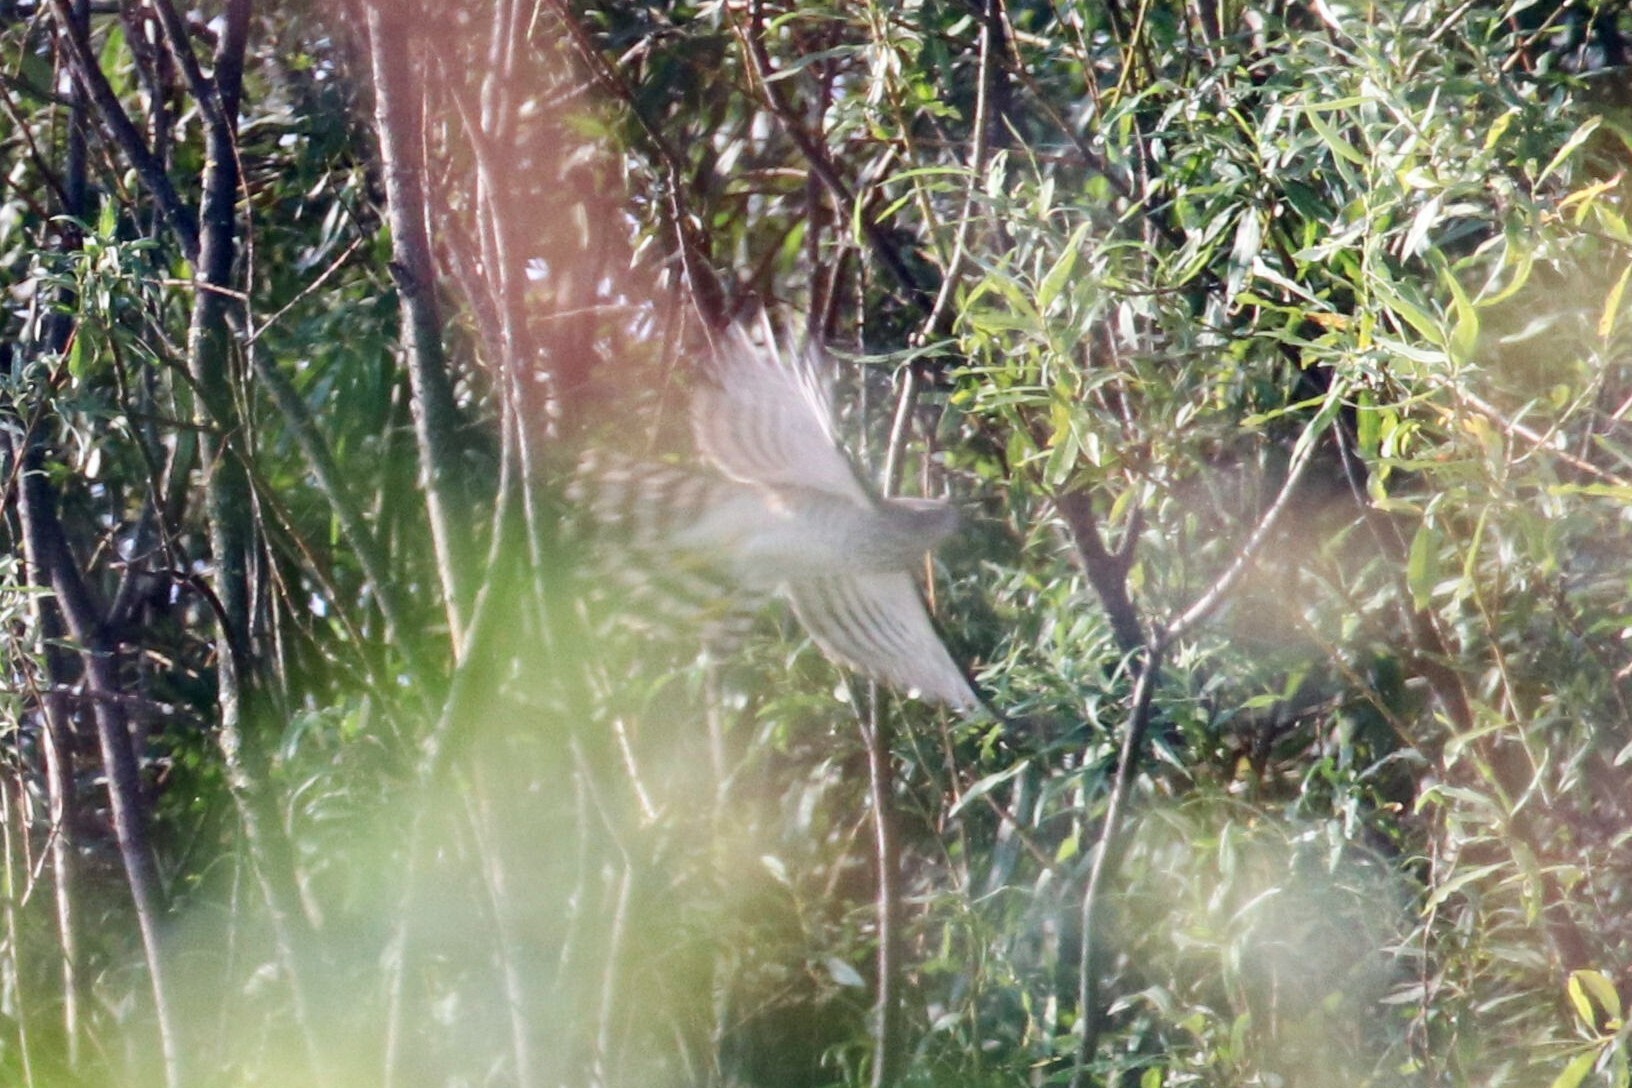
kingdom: Animalia
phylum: Chordata
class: Aves
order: Accipitriformes
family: Accipitridae
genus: Accipiter
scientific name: Accipiter nisus
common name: Eurasian sparrowhawk
